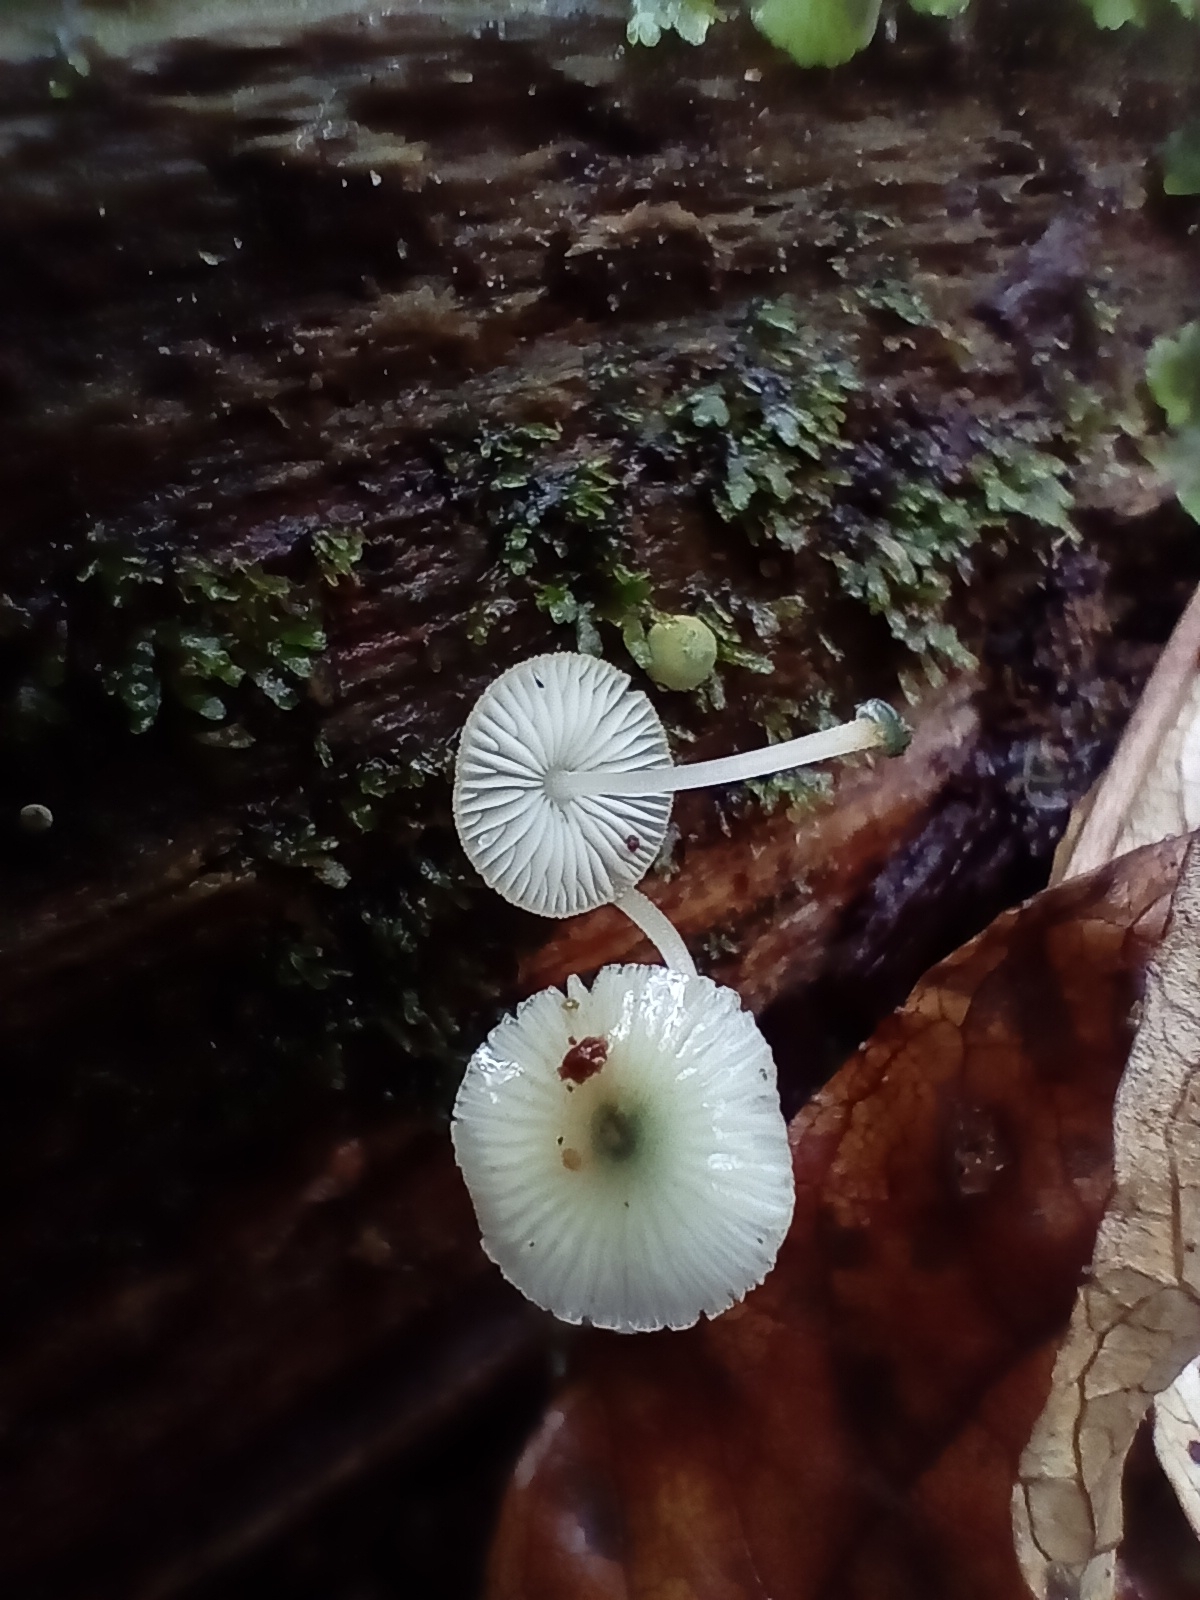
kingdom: Fungi
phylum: Basidiomycota
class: Agaricomycetes
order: Agaricales
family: Mycenaceae
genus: Mycena
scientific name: Mycena interrupta
